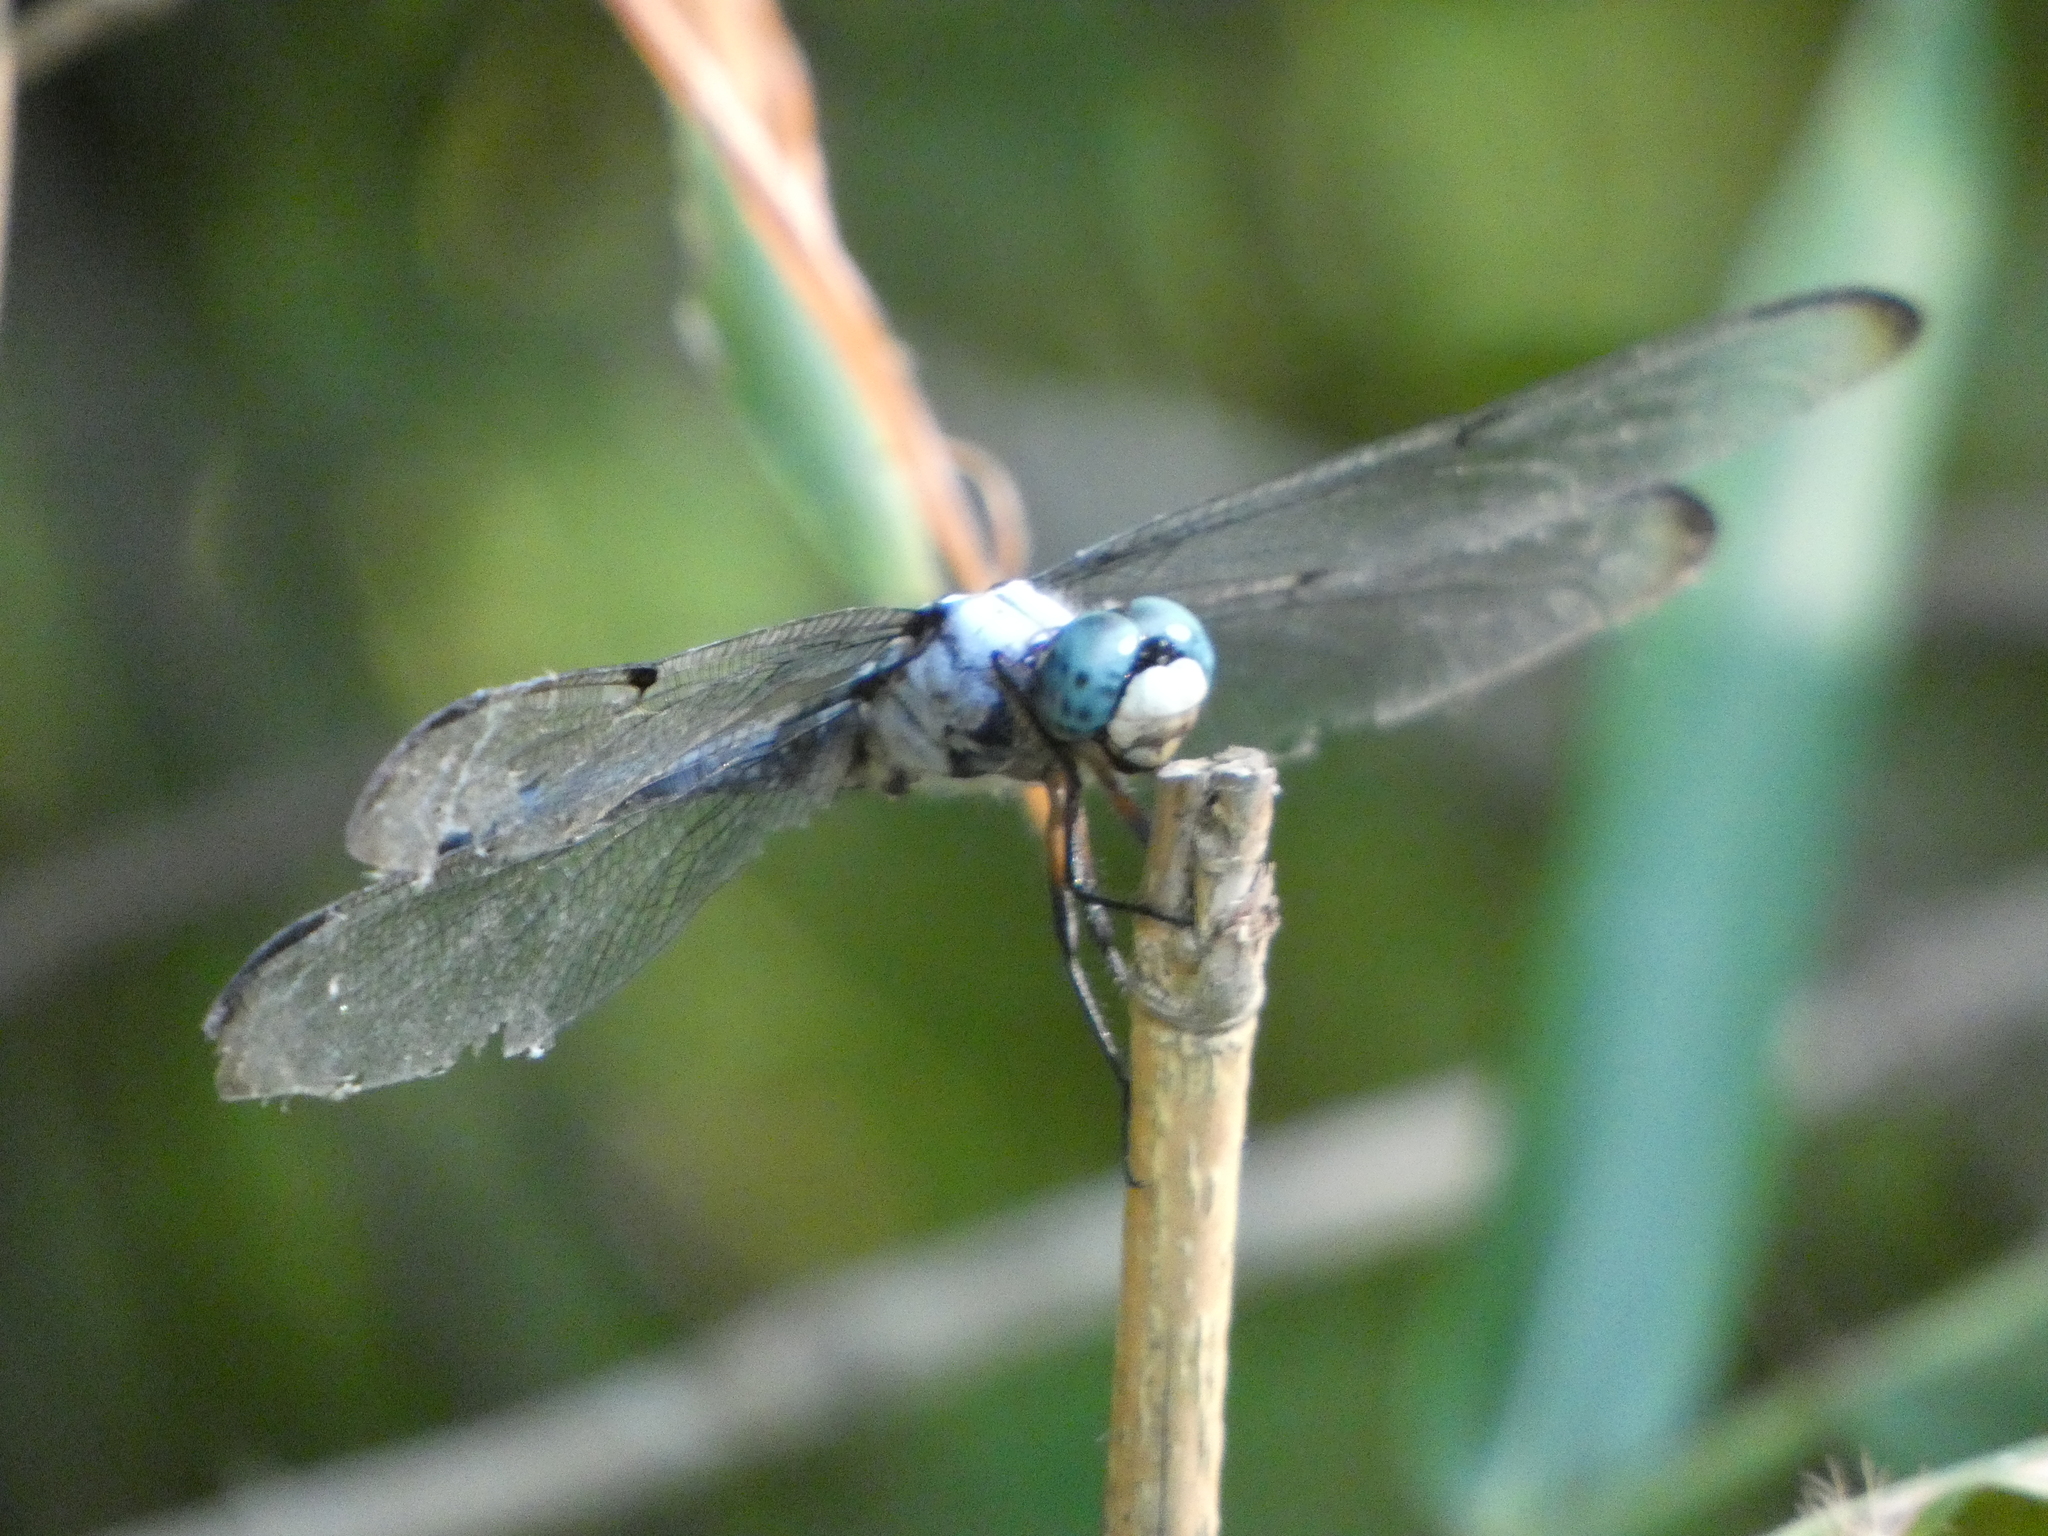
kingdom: Animalia
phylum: Arthropoda
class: Insecta
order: Odonata
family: Libellulidae
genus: Libellula
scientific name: Libellula vibrans
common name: Great blue skimmer
